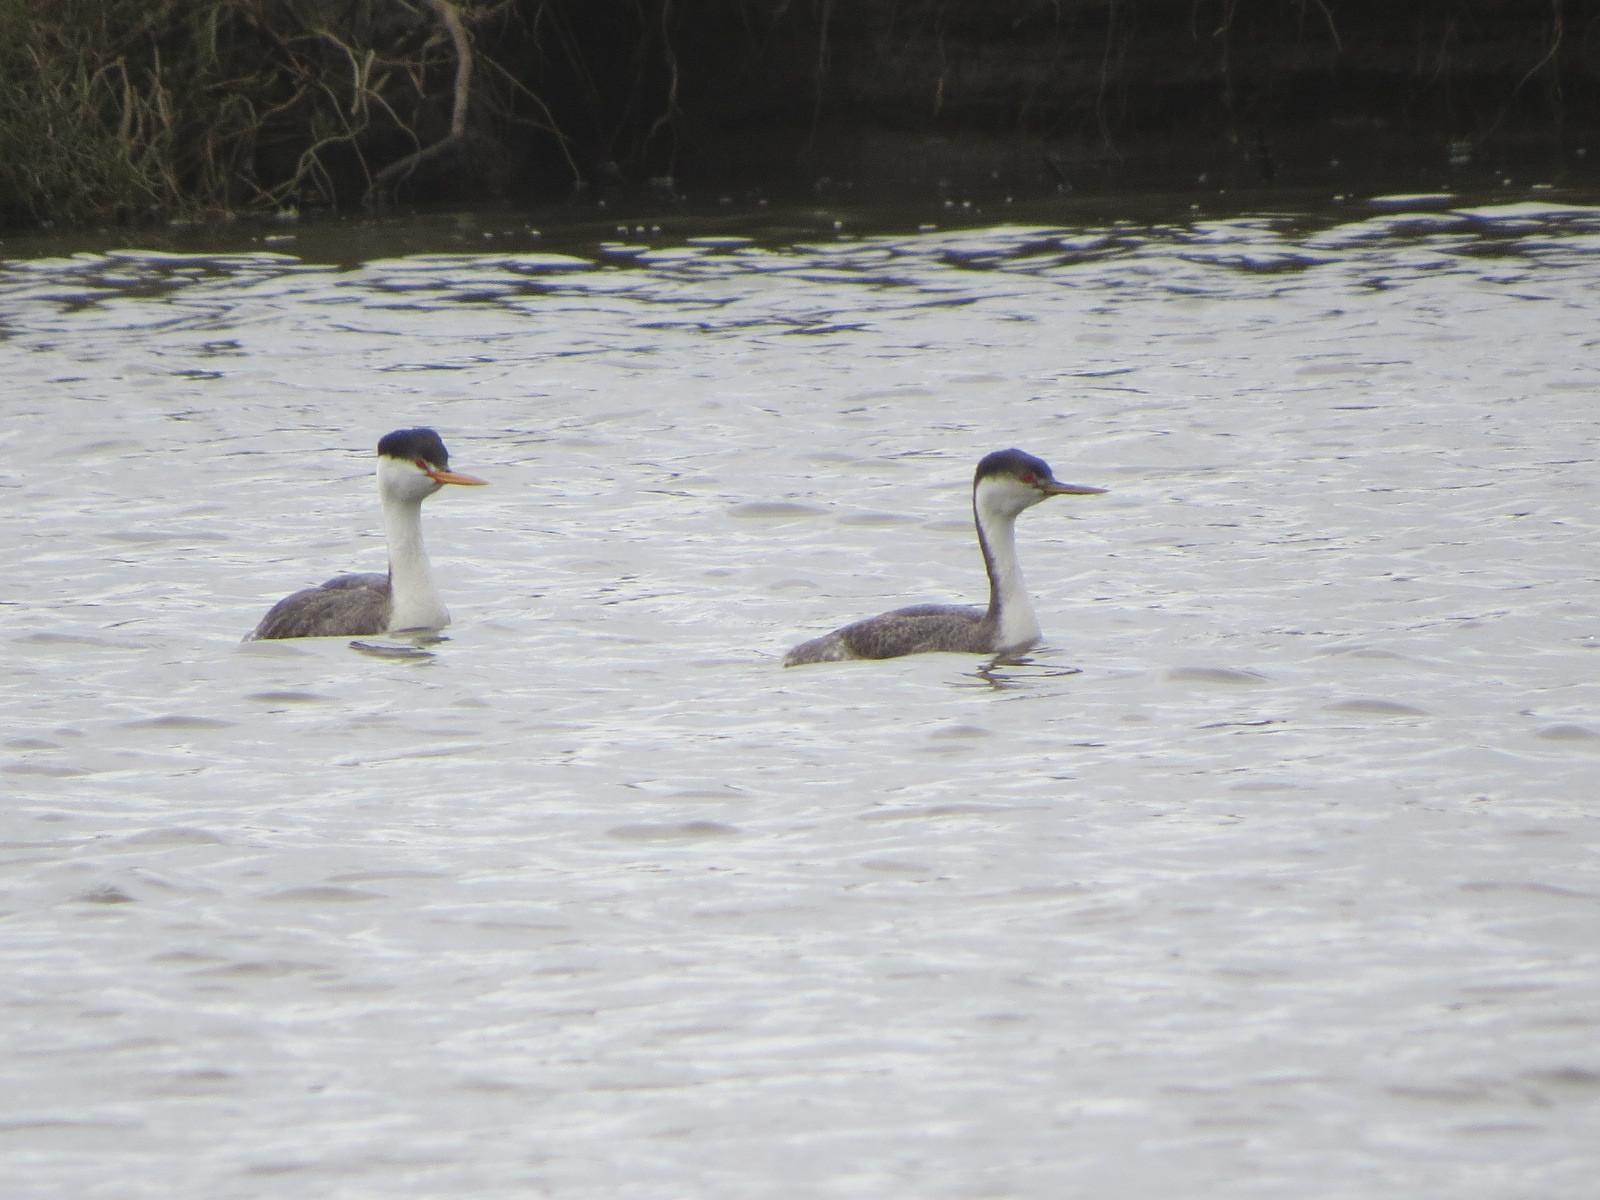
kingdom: Animalia
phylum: Chordata
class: Aves
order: Podicipediformes
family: Podicipedidae
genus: Aechmophorus
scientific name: Aechmophorus occidentalis
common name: Western grebe
